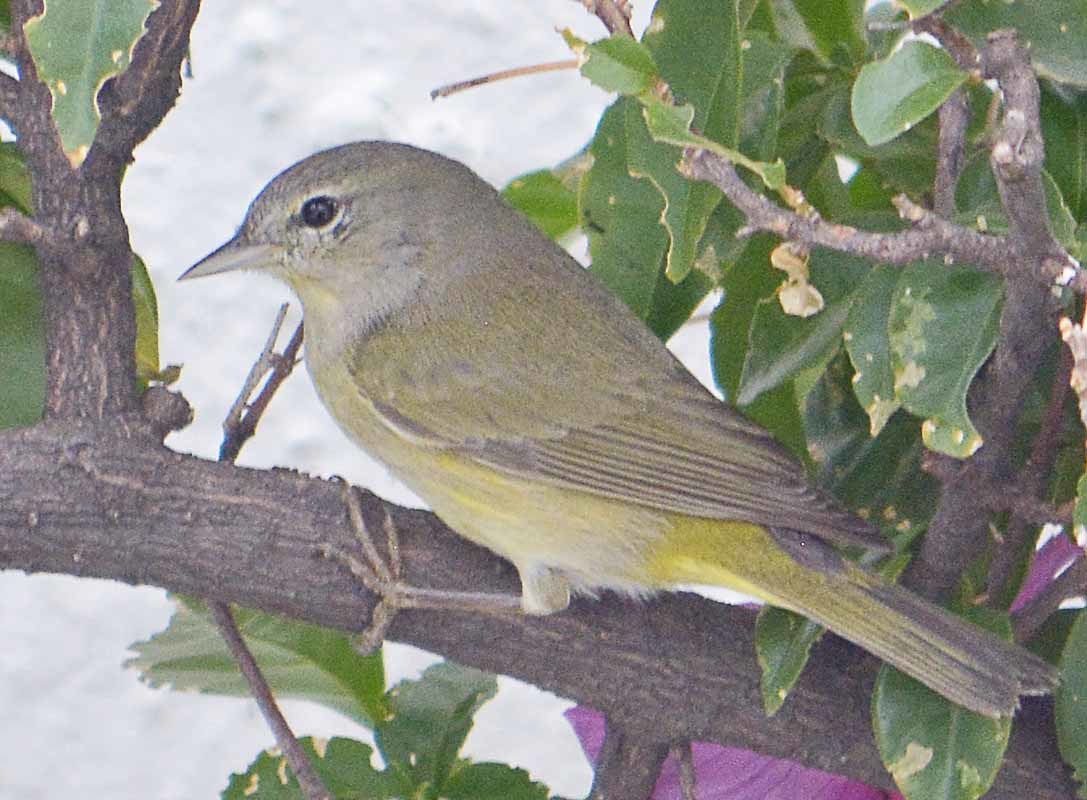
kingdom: Animalia
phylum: Chordata
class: Aves
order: Passeriformes
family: Parulidae
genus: Leiothlypis
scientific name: Leiothlypis celata
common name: Orange-crowned warbler
